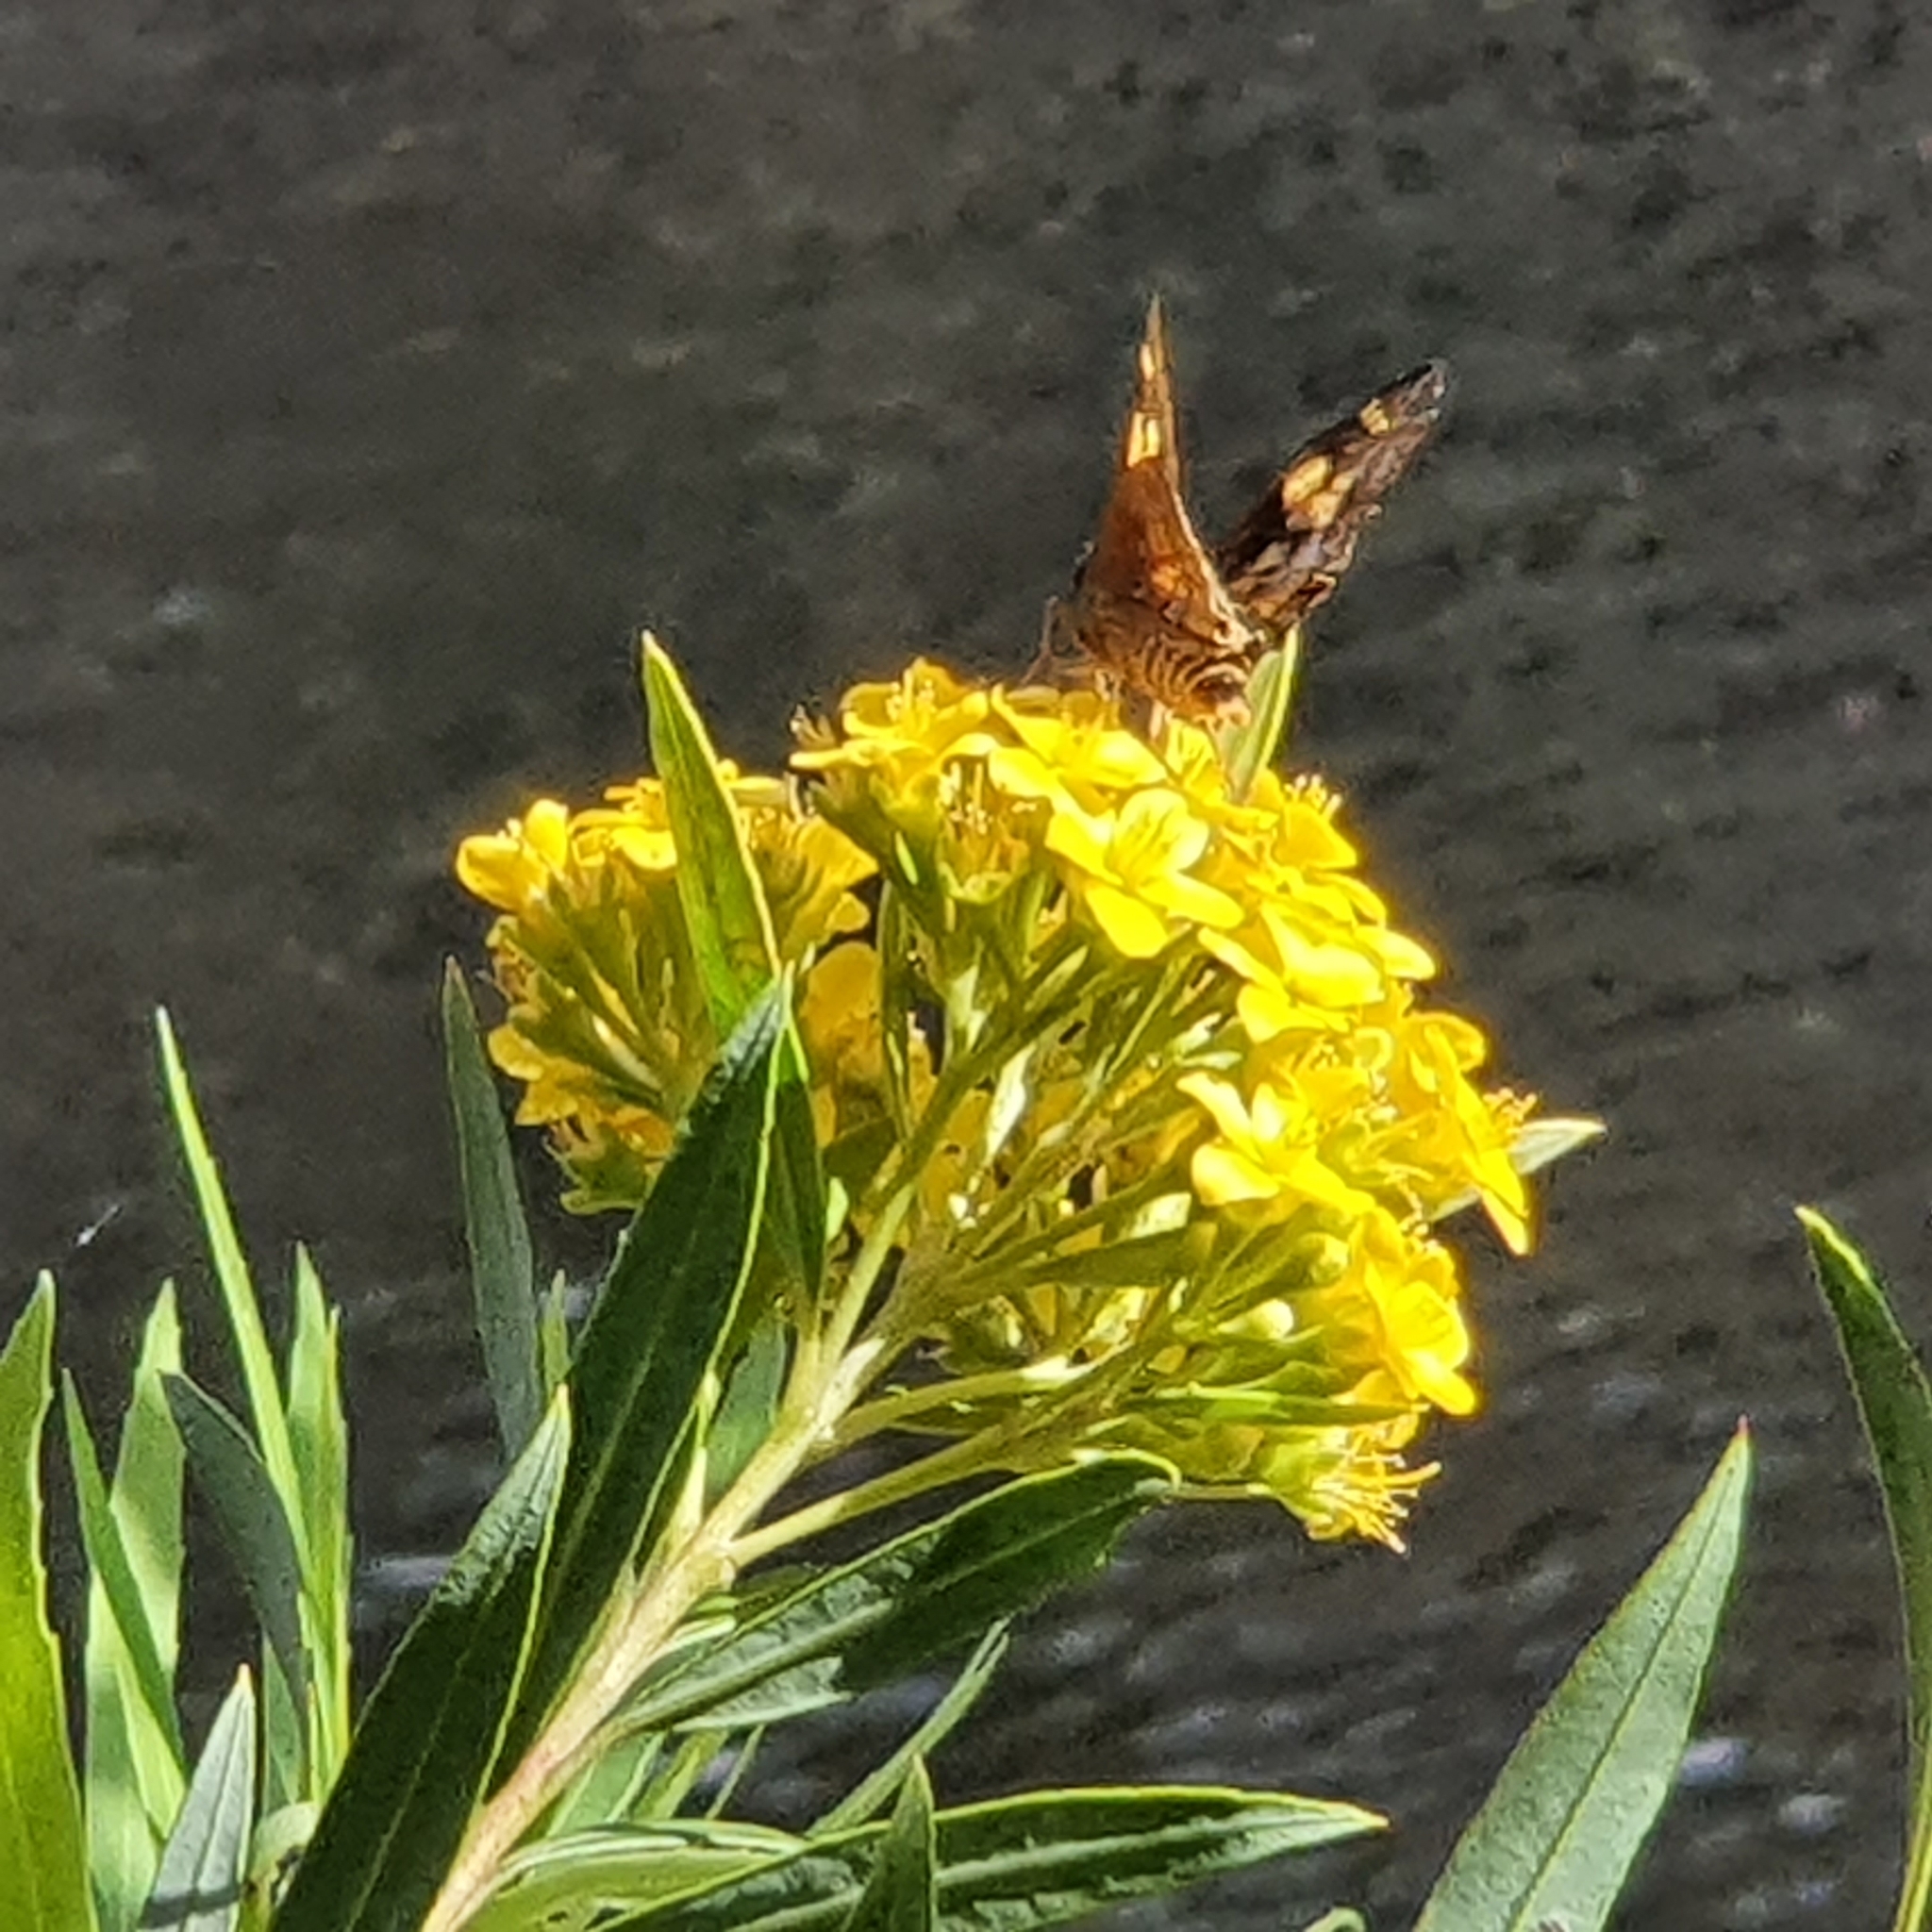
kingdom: Animalia
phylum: Arthropoda
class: Insecta
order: Lepidoptera
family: Hesperiidae
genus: Trapezites
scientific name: Trapezites symmomus
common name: Splendid ochre
